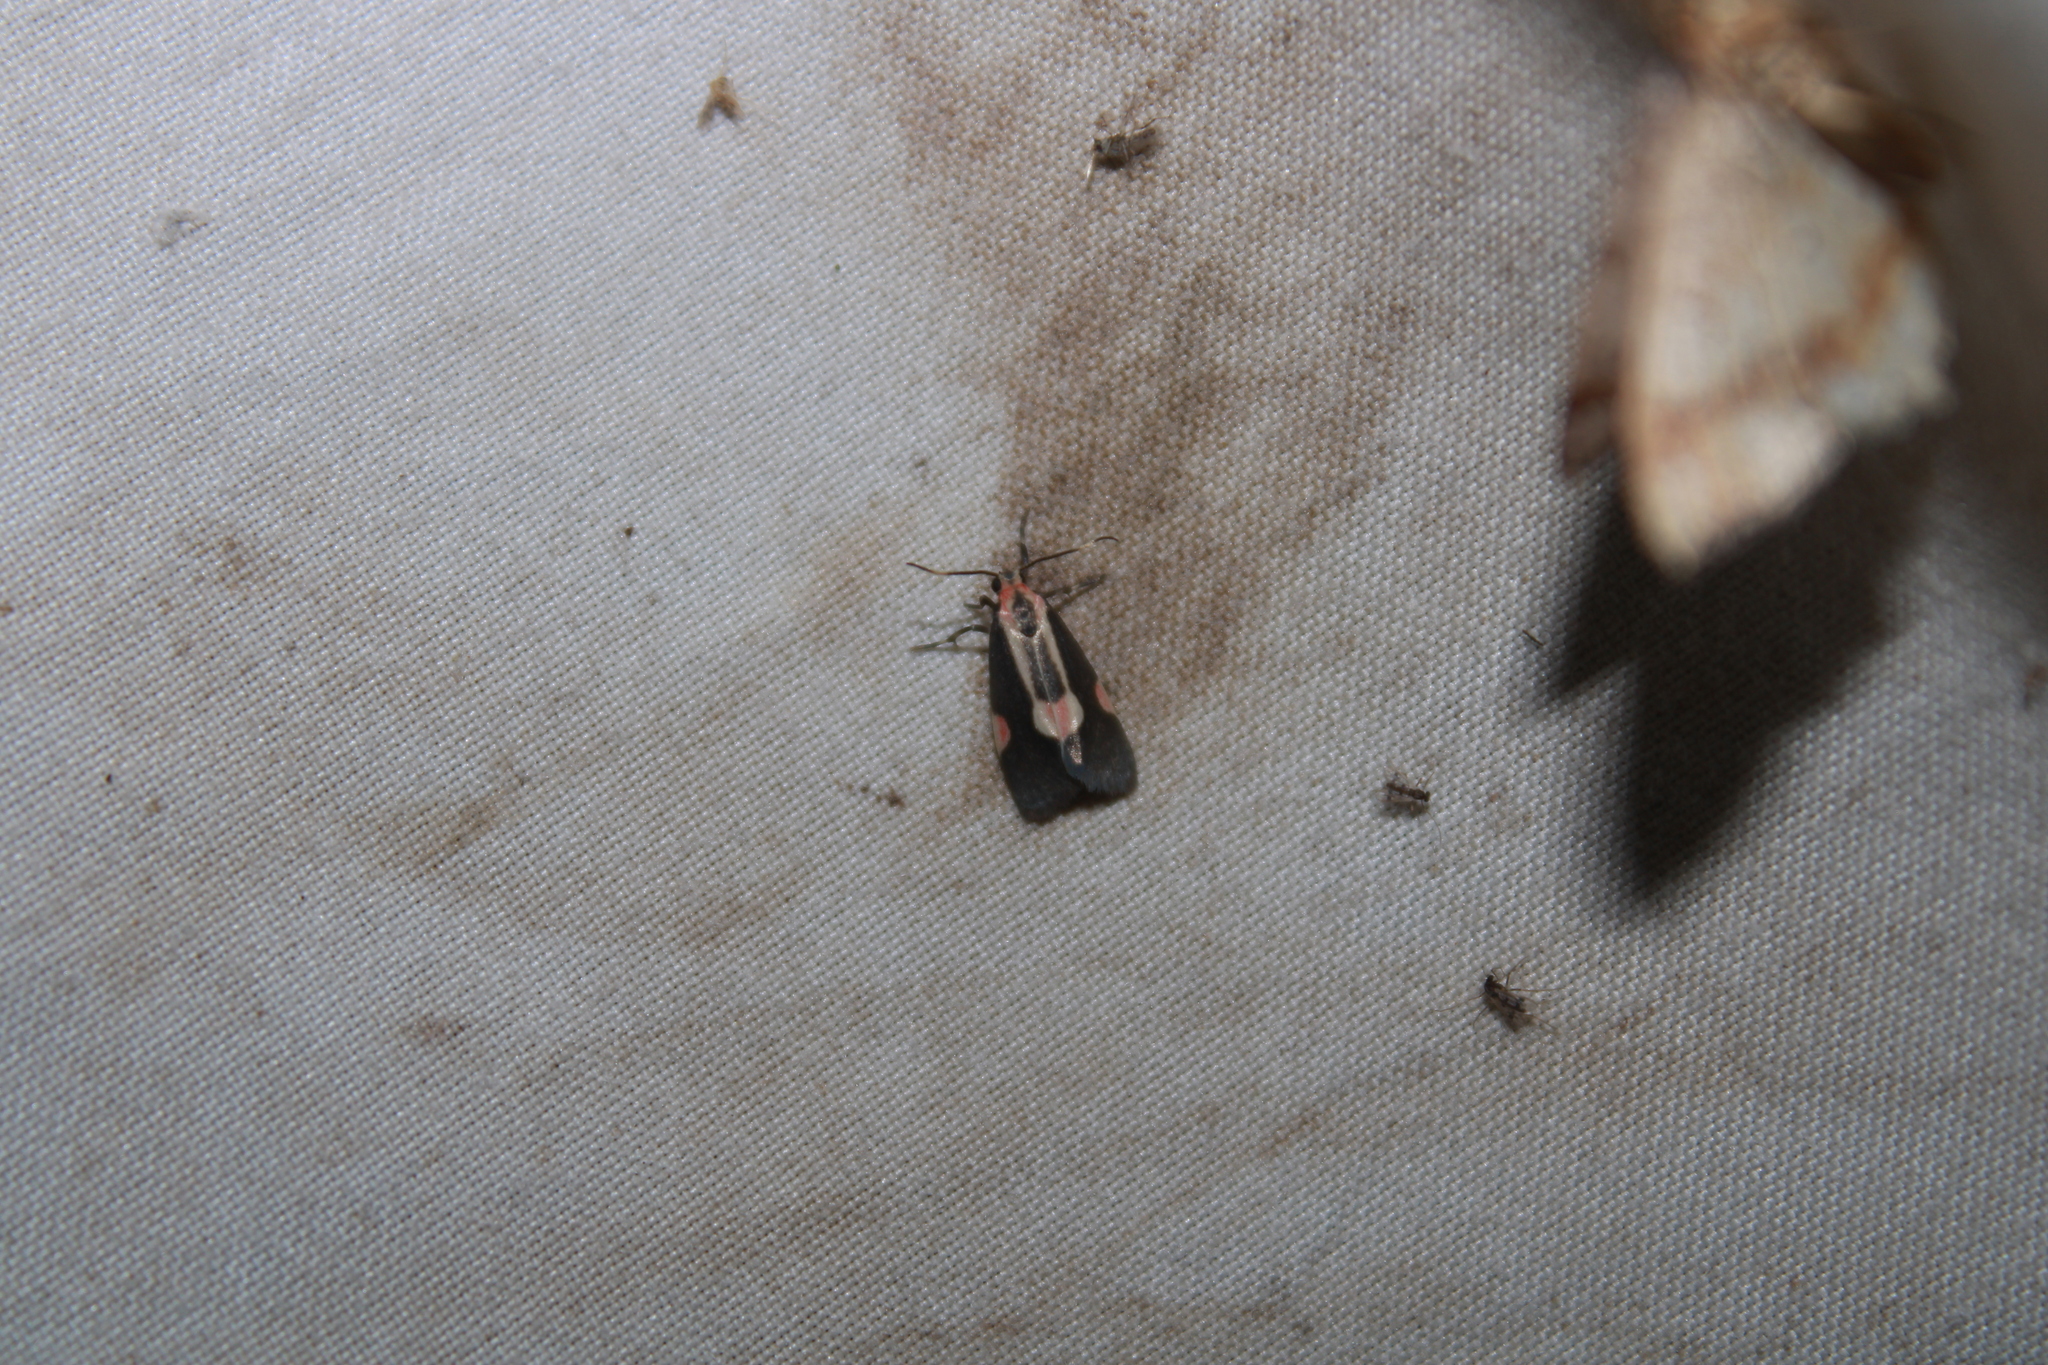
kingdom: Animalia
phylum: Arthropoda
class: Insecta
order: Lepidoptera
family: Erebidae
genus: Cisthene
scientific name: Cisthene packardii
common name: Packard's lichen moth
